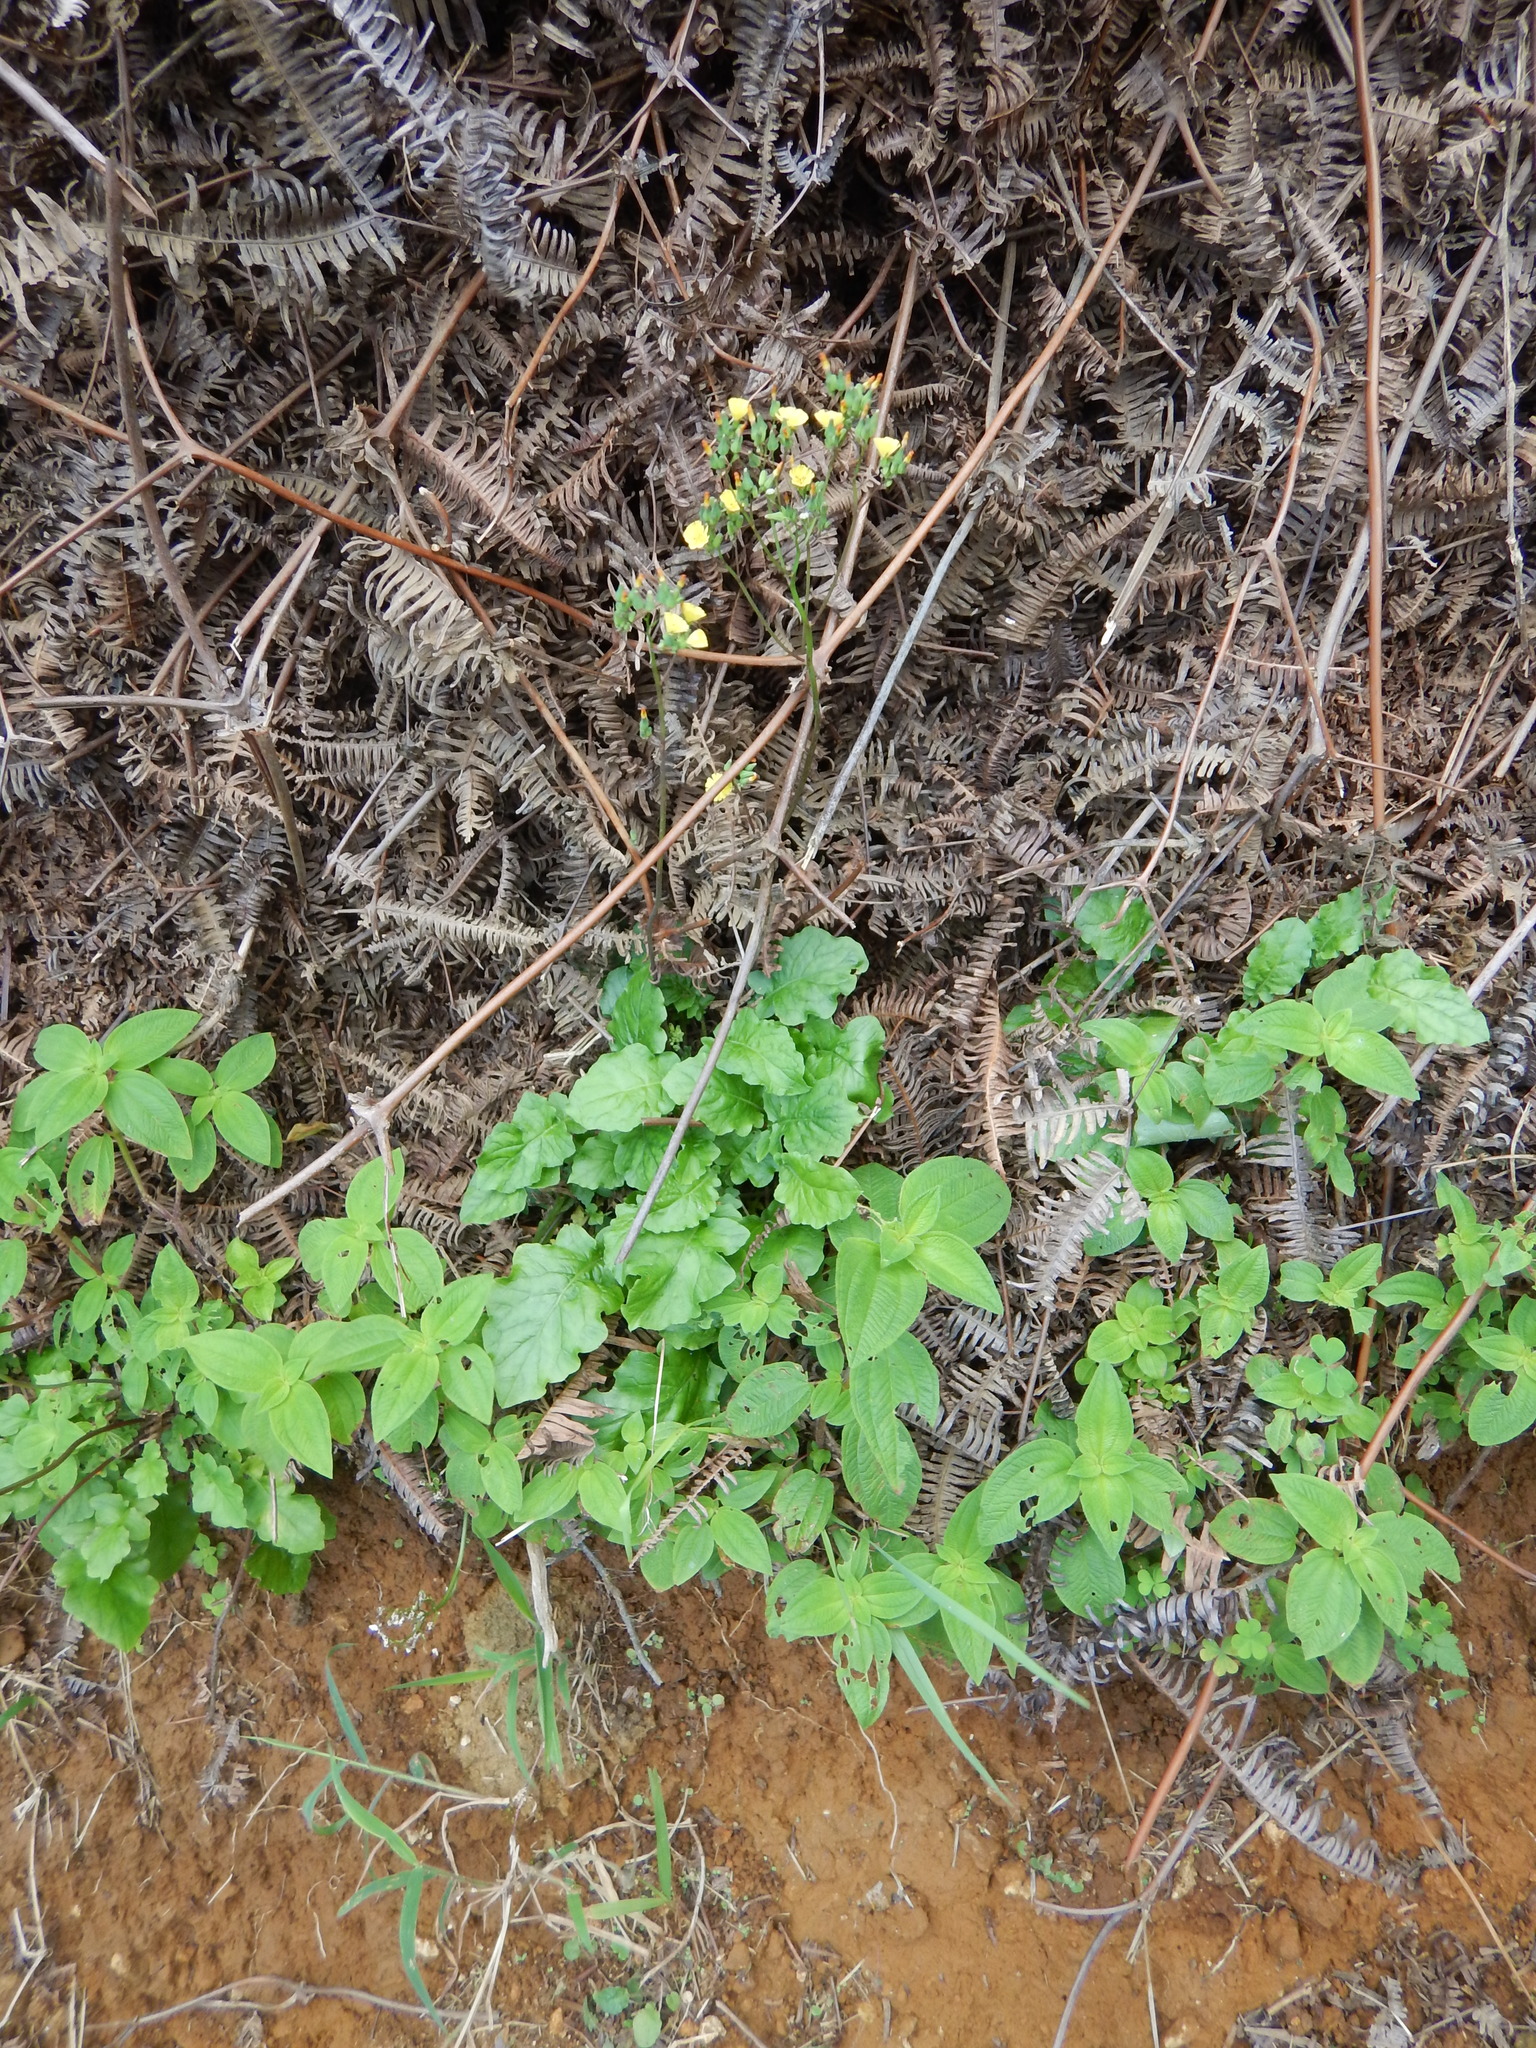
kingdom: Plantae
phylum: Tracheophyta
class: Magnoliopsida
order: Asterales
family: Asteraceae
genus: Youngia
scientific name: Youngia japonica
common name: Oriental false hawksbeard
